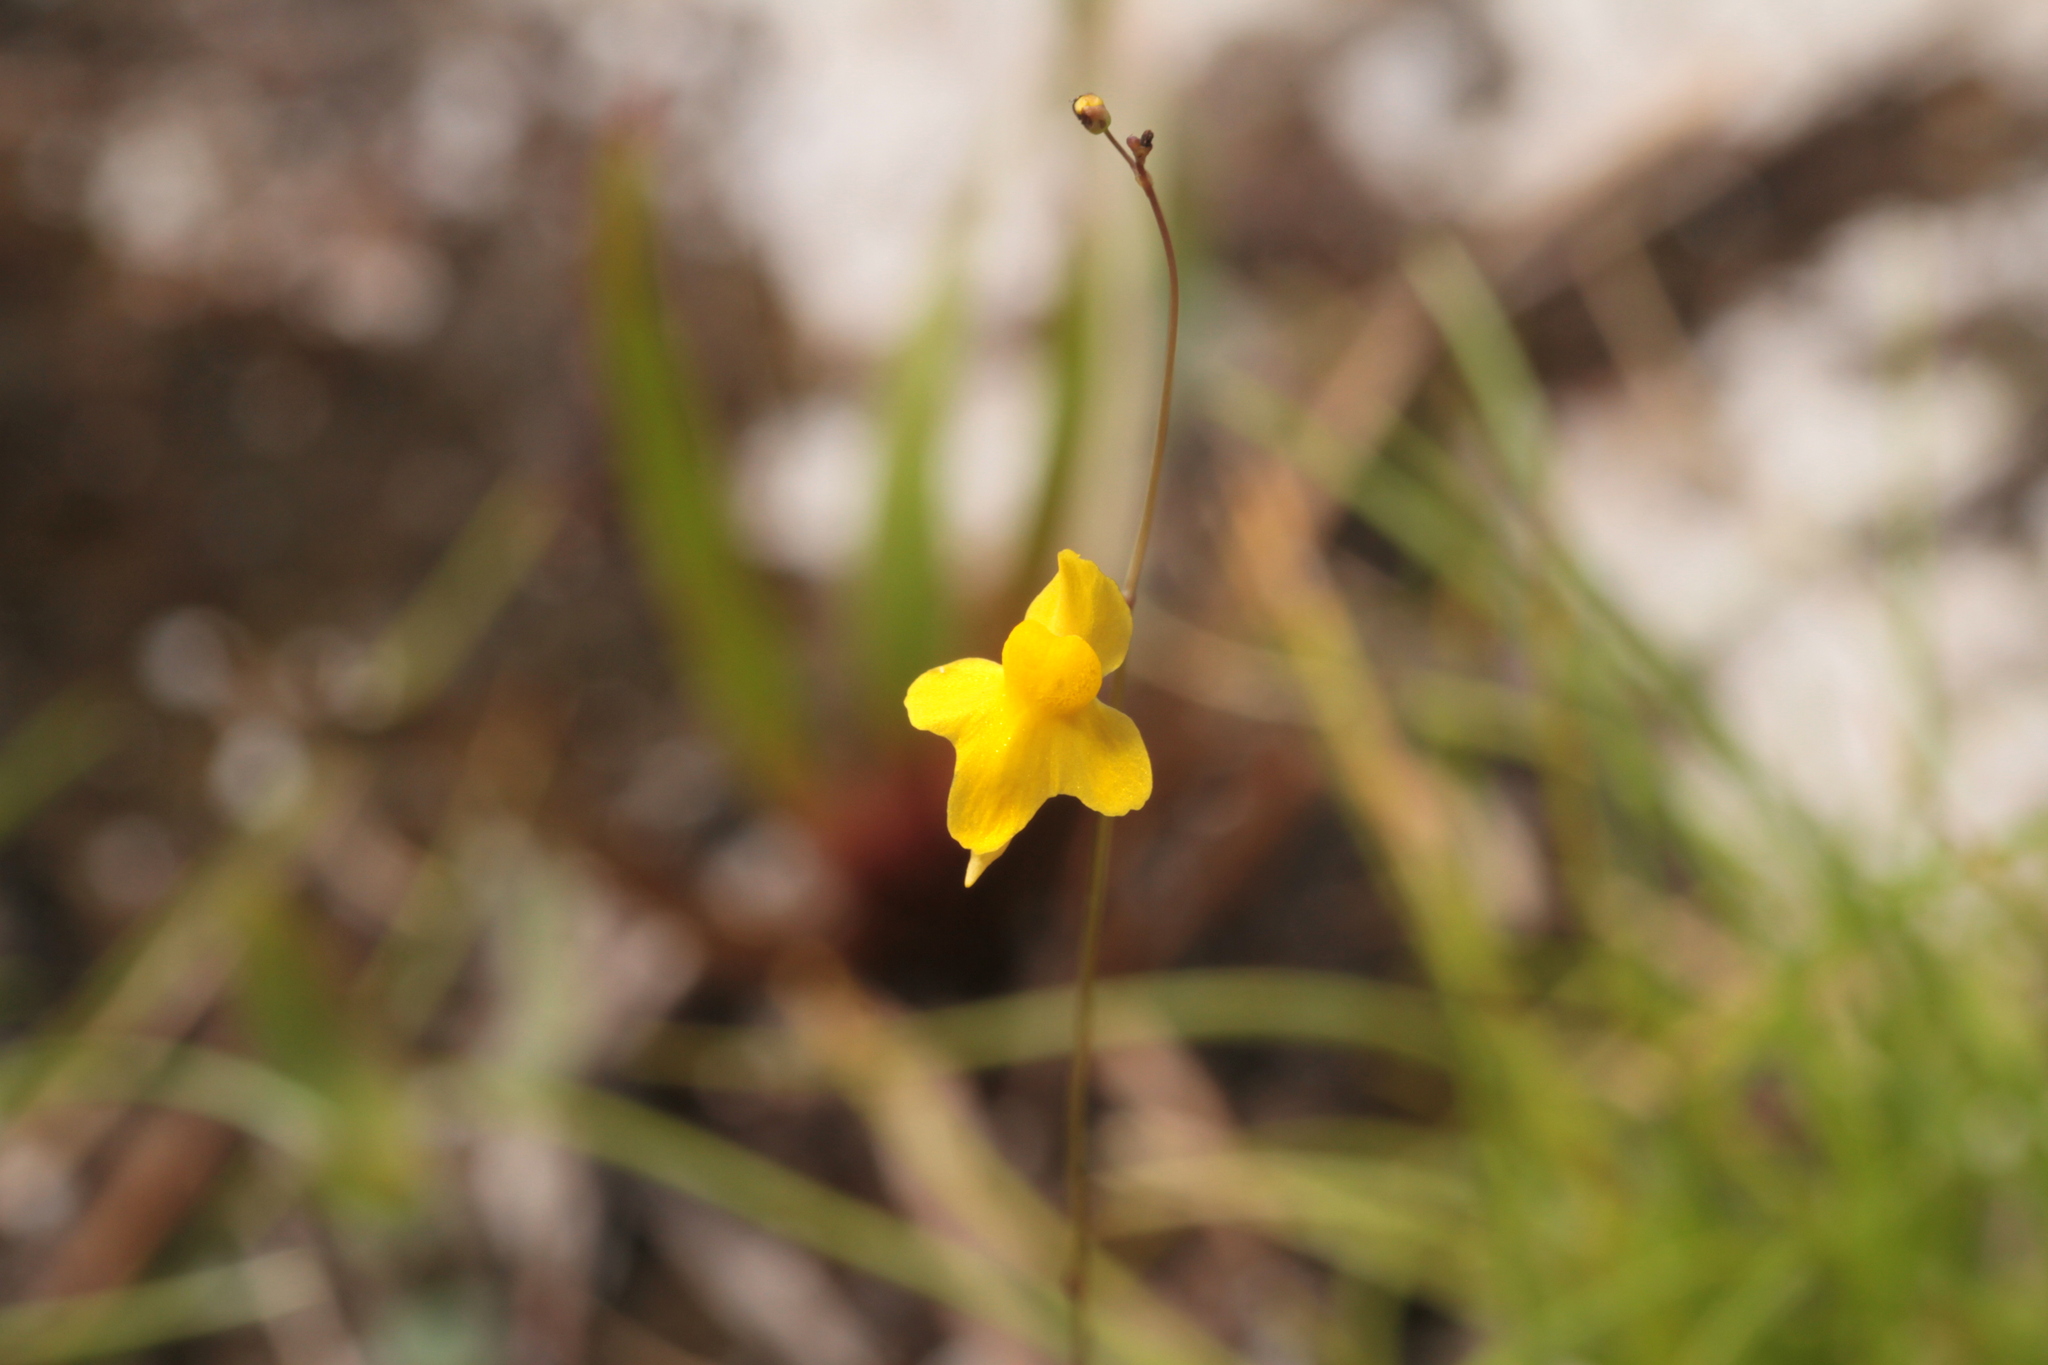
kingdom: Plantae
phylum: Tracheophyta
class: Magnoliopsida
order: Lamiales
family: Lentibulariaceae
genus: Utricularia
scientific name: Utricularia subulata
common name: Tiny bladderwort
